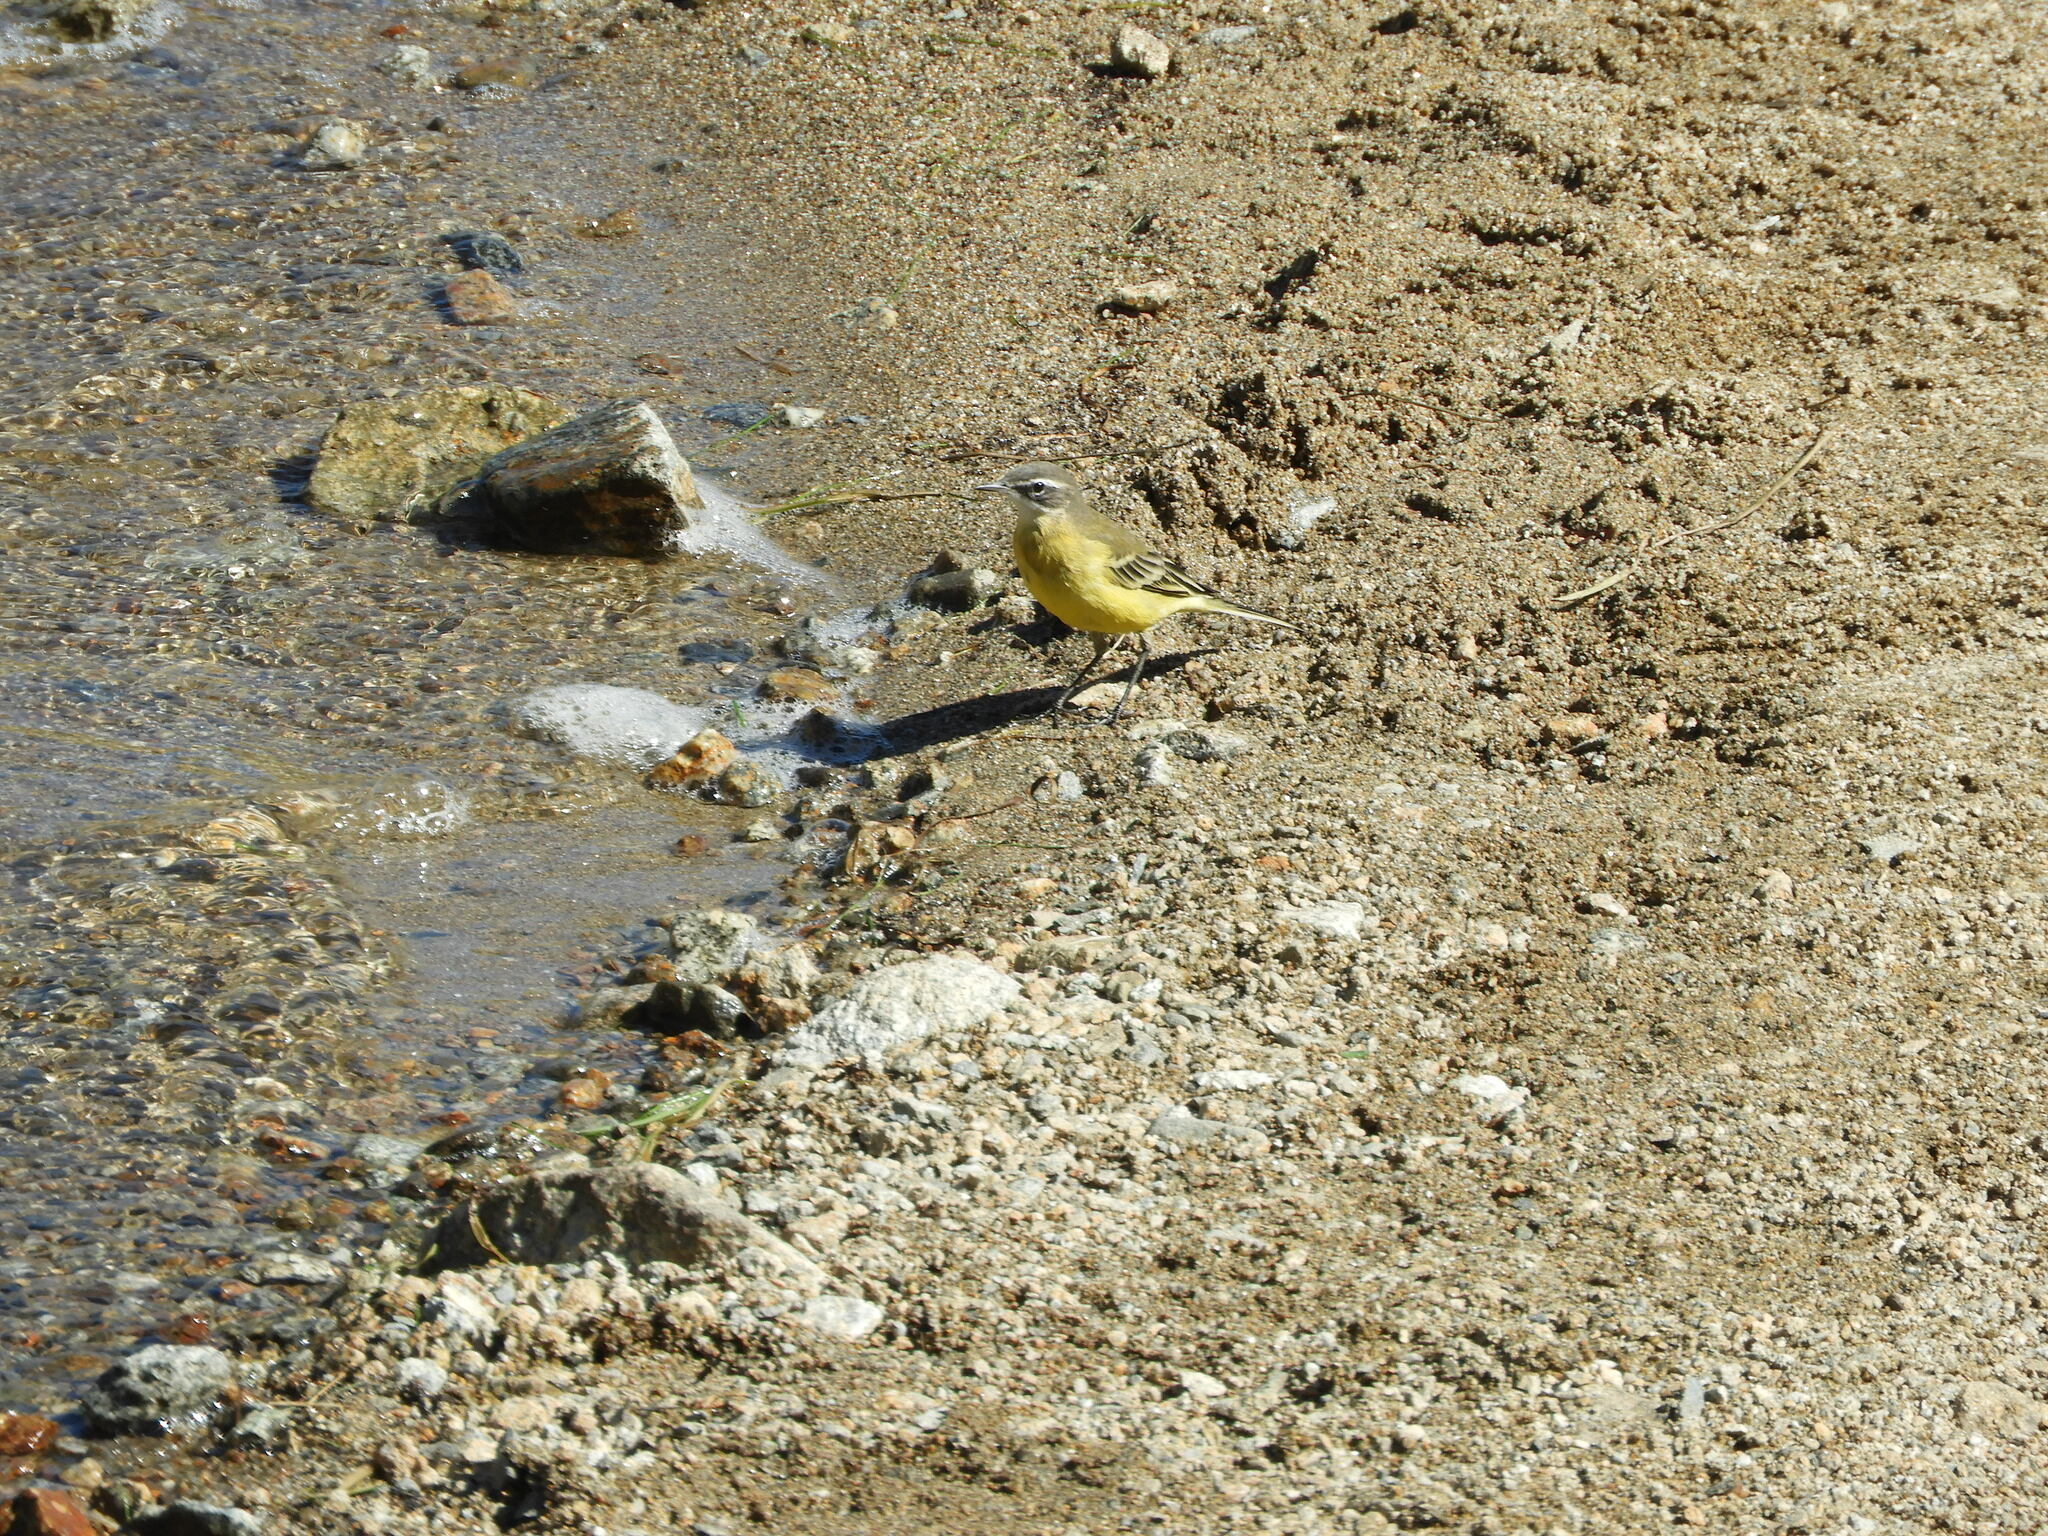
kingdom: Animalia
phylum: Chordata
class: Aves
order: Passeriformes
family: Motacillidae
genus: Motacilla
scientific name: Motacilla flava
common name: Western yellow wagtail
